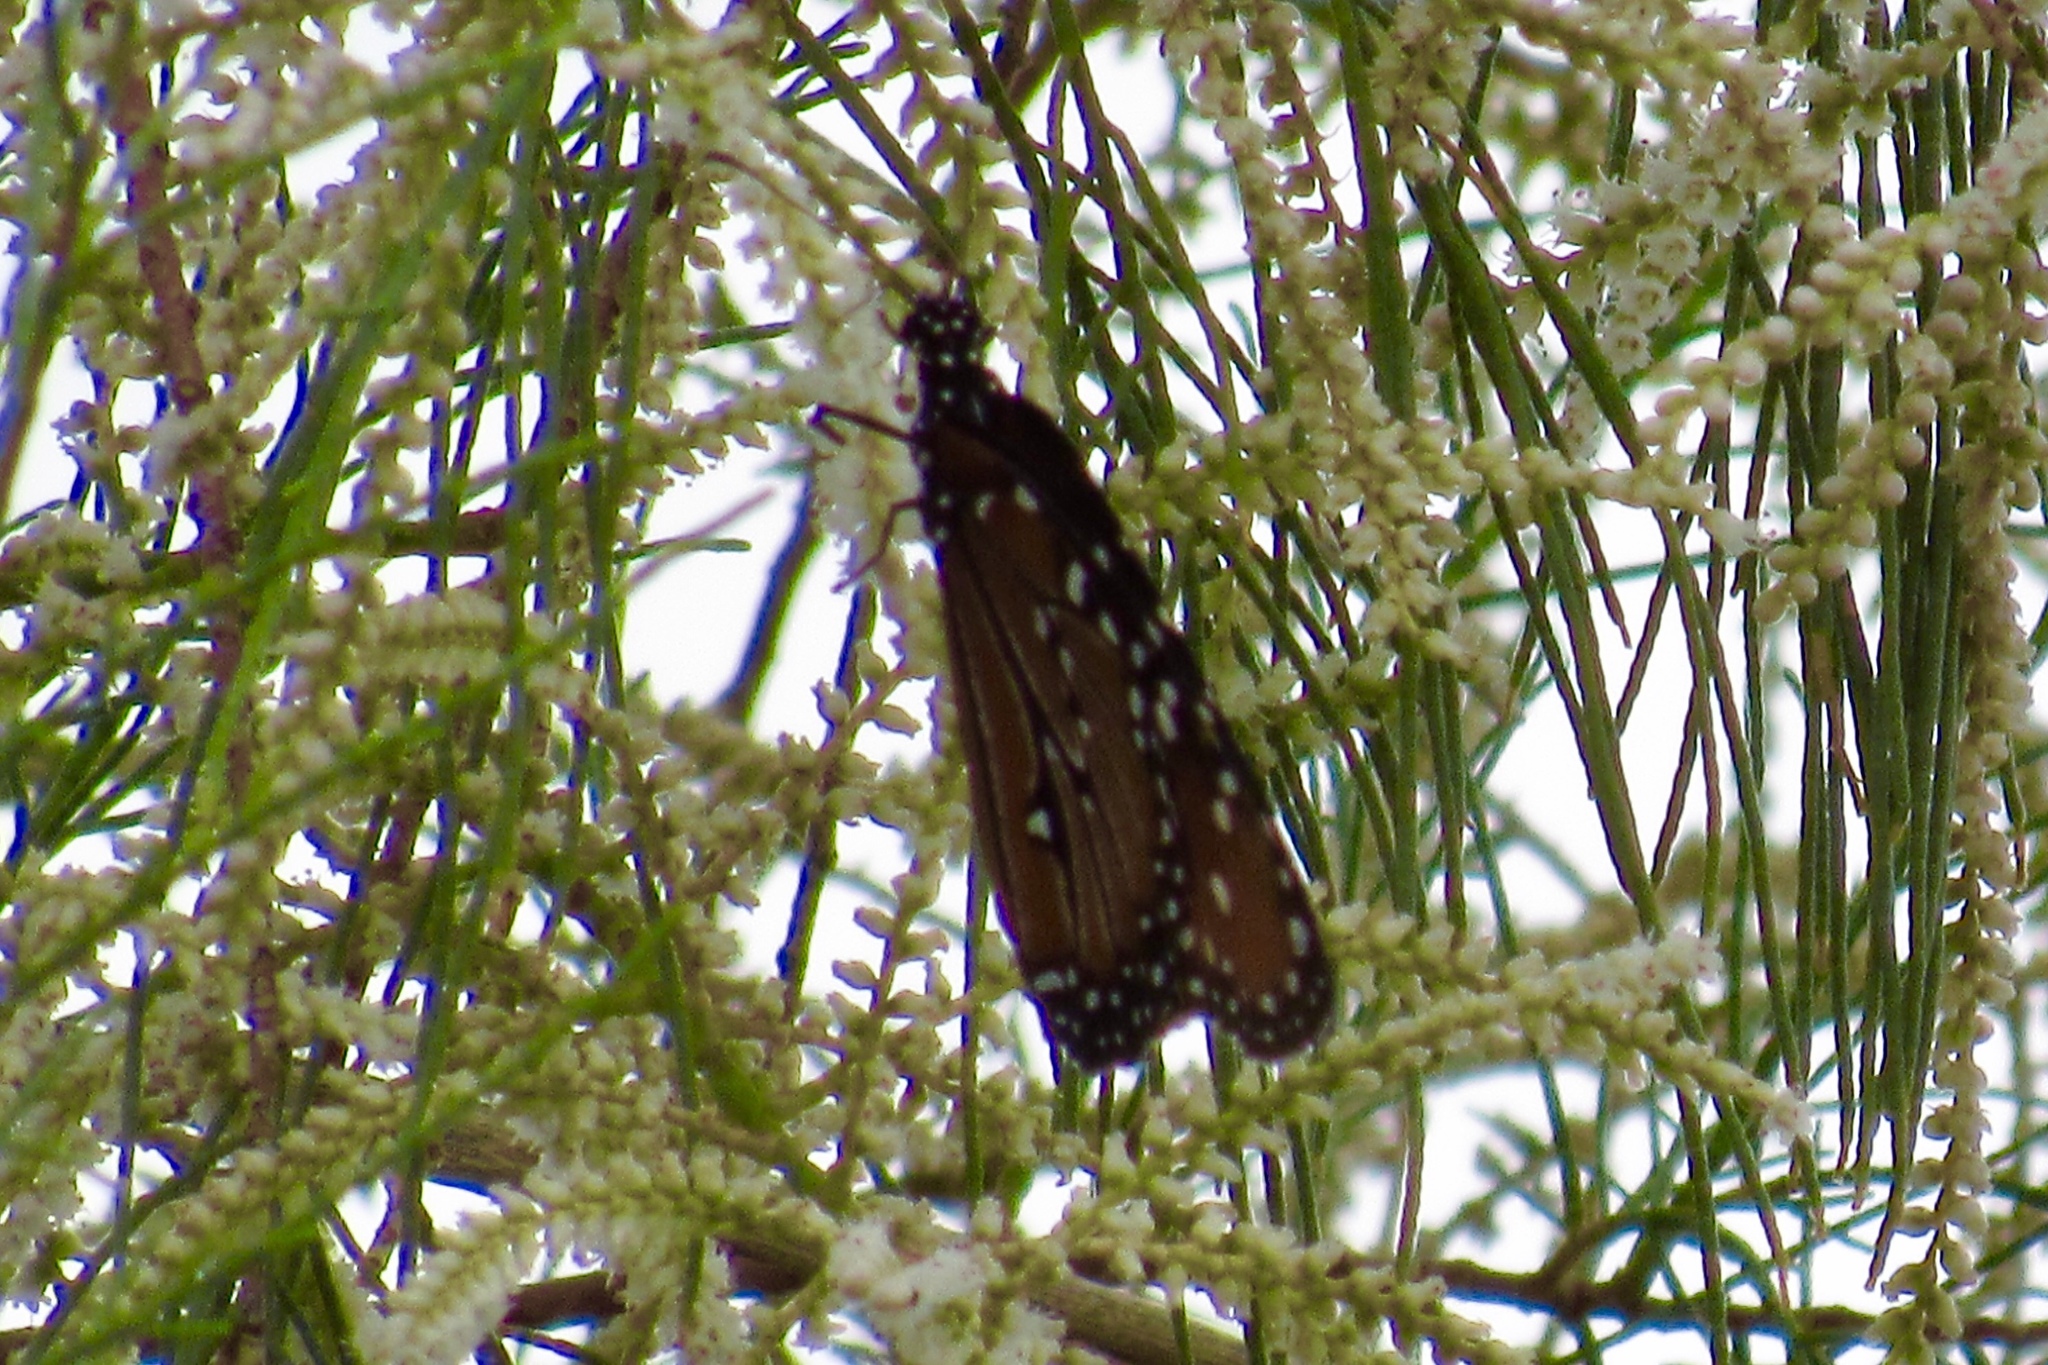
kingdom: Animalia
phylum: Arthropoda
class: Insecta
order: Lepidoptera
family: Nymphalidae
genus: Danaus
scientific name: Danaus gilippus
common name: Queen
